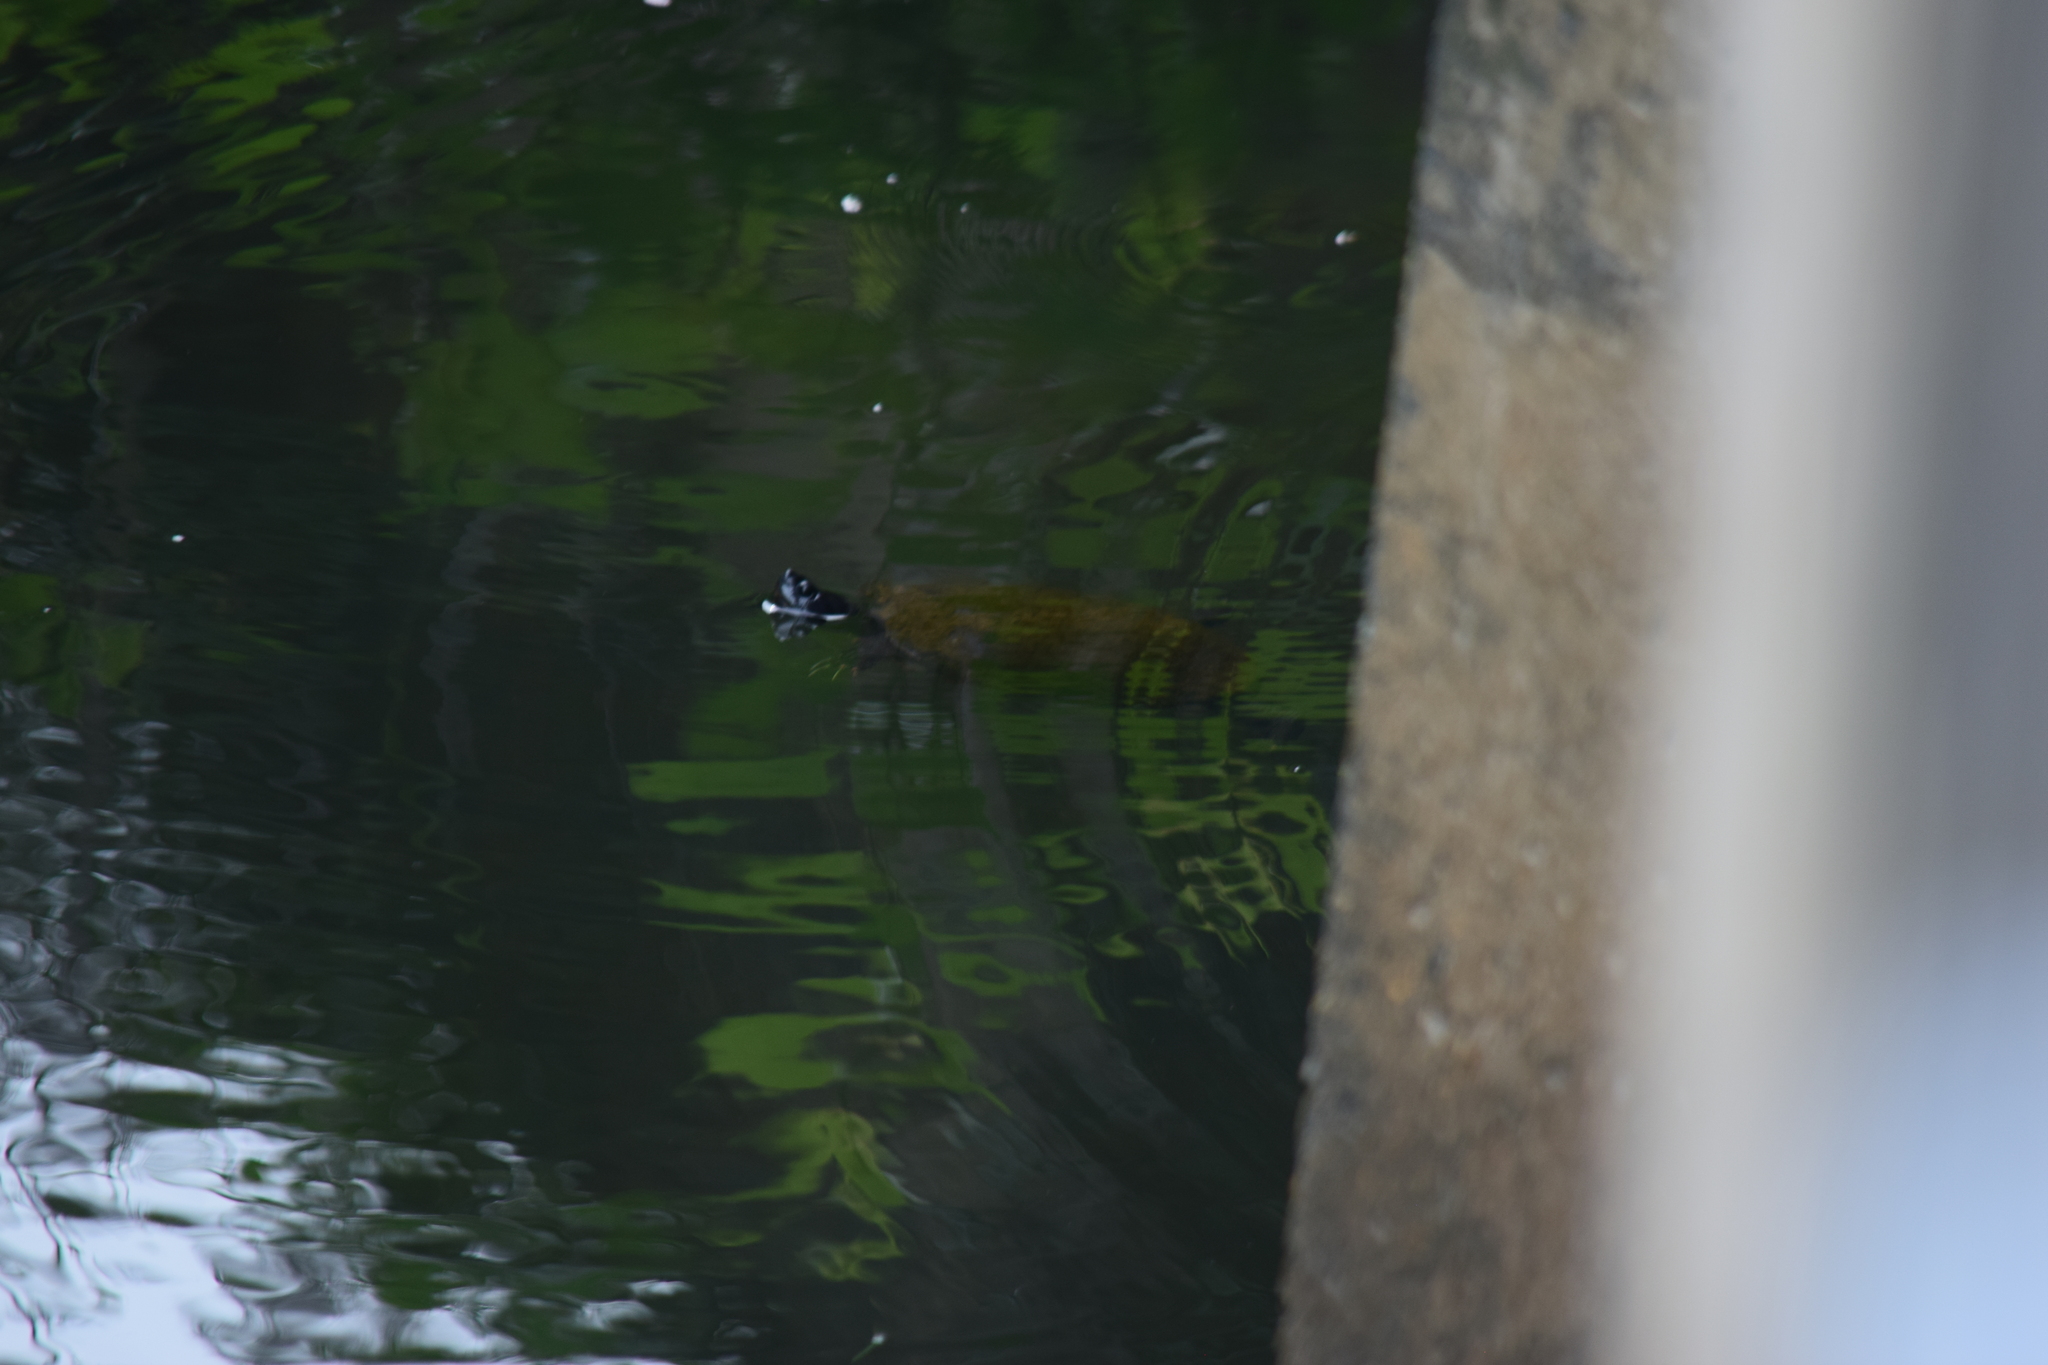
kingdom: Animalia
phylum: Chordata
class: Testudines
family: Emydidae
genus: Pseudemys
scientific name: Pseudemys rubriventris
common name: American red-bellied turtle
